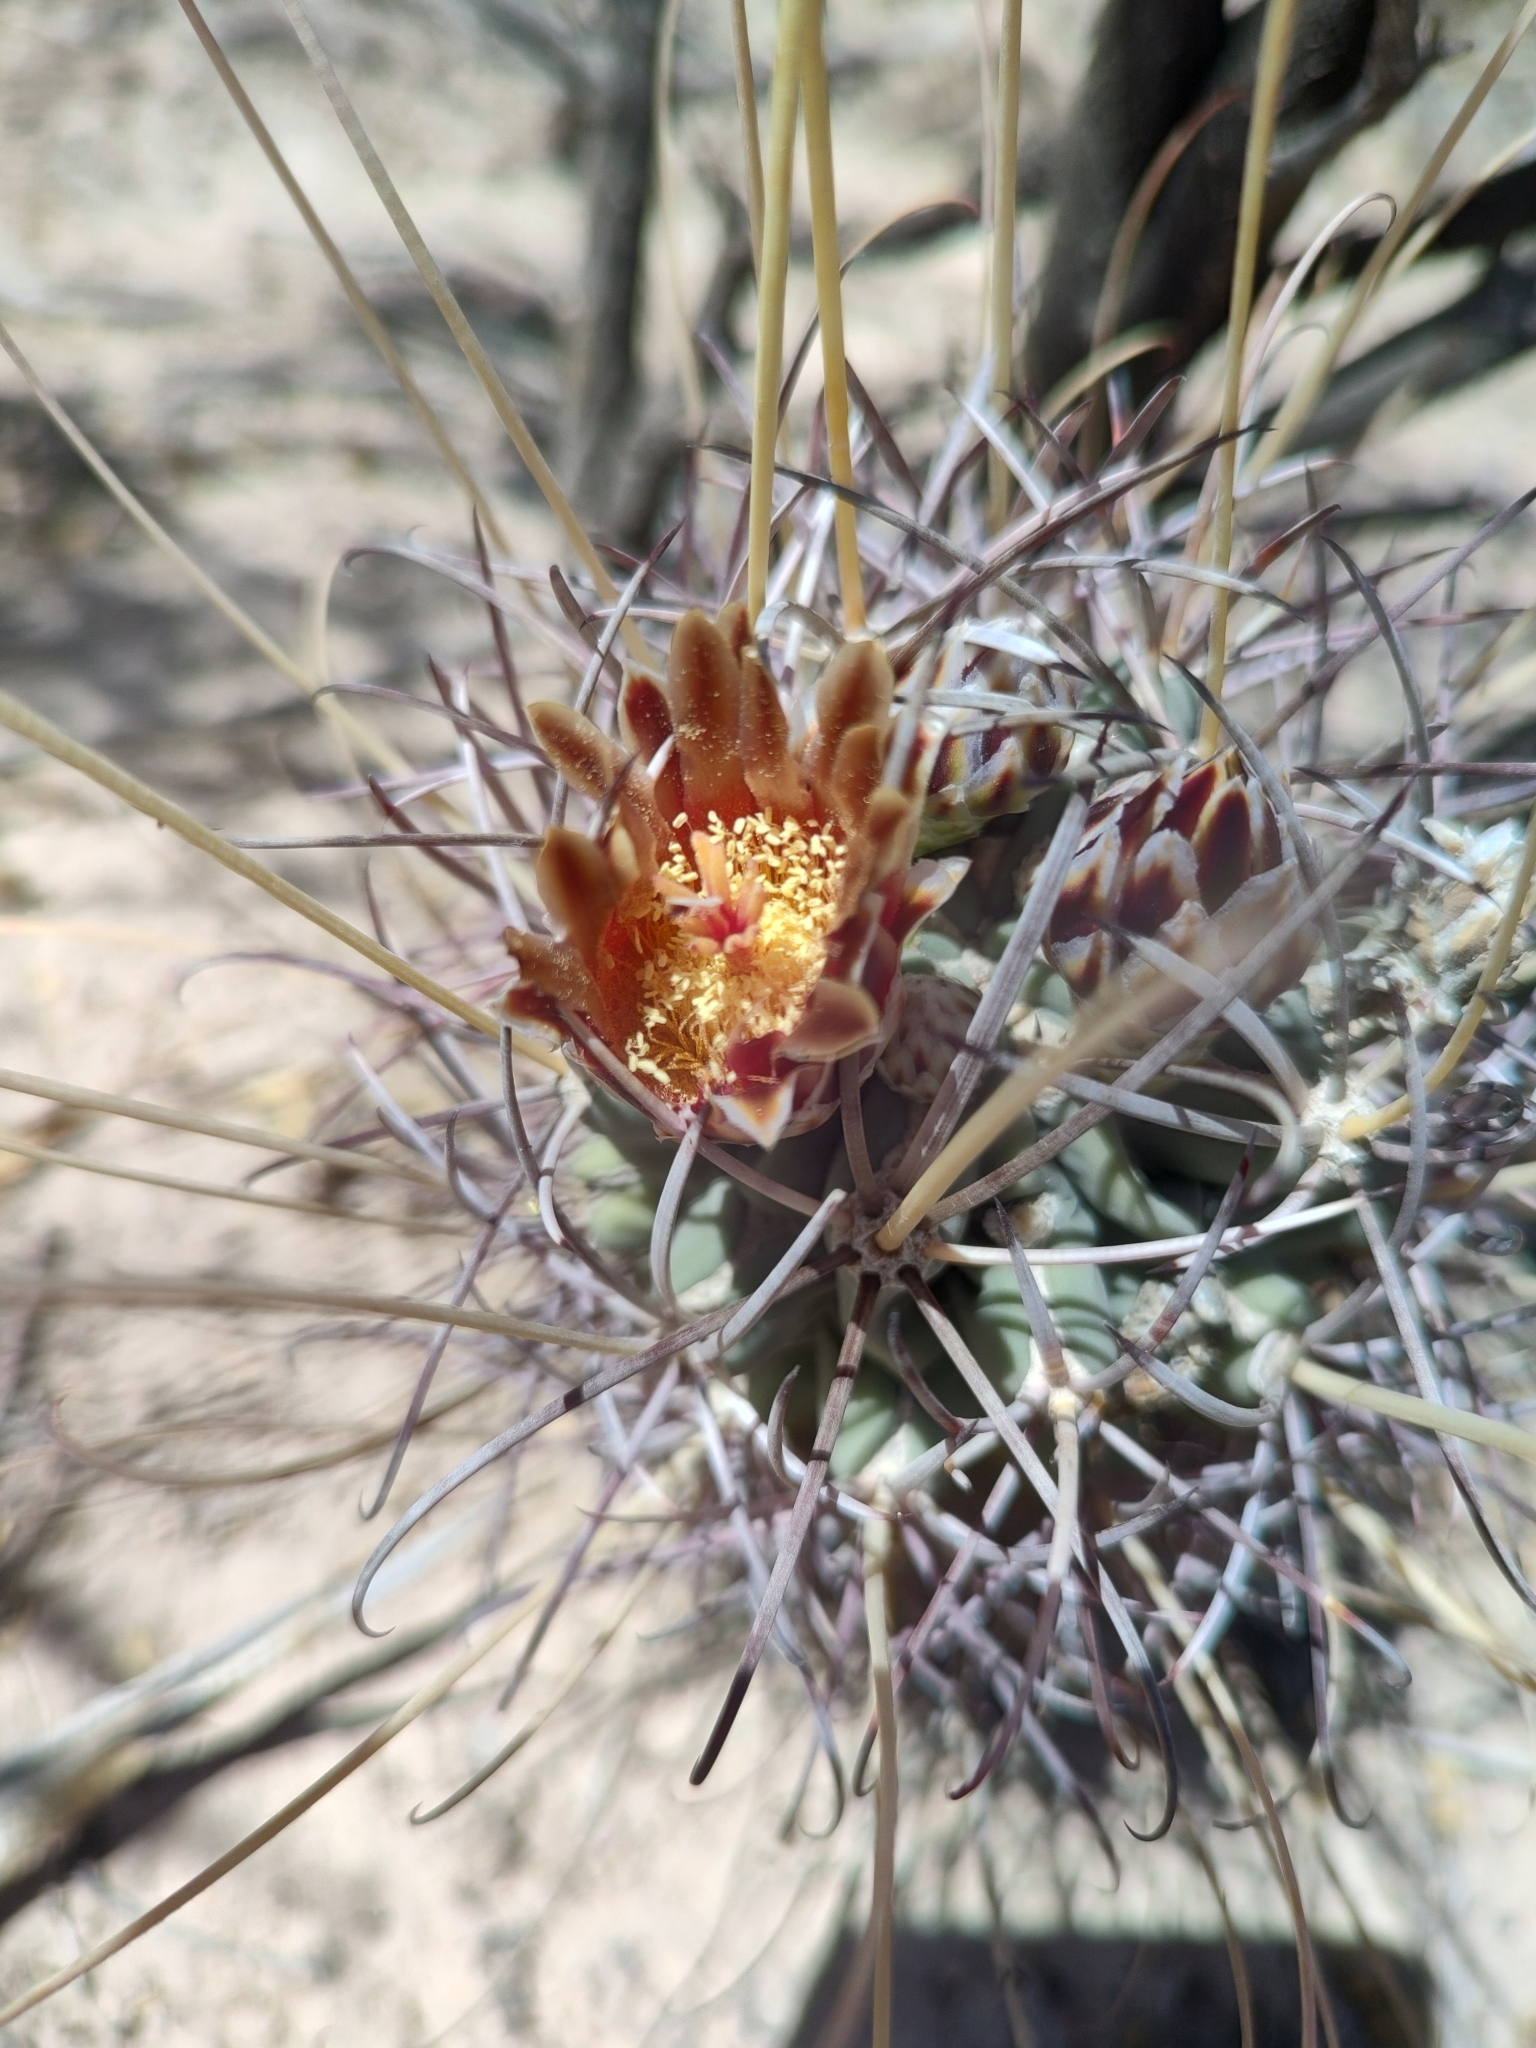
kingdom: Plantae
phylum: Tracheophyta
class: Magnoliopsida
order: Caryophyllales
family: Cactaceae
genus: Ferocactus
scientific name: Ferocactus uncinatus
